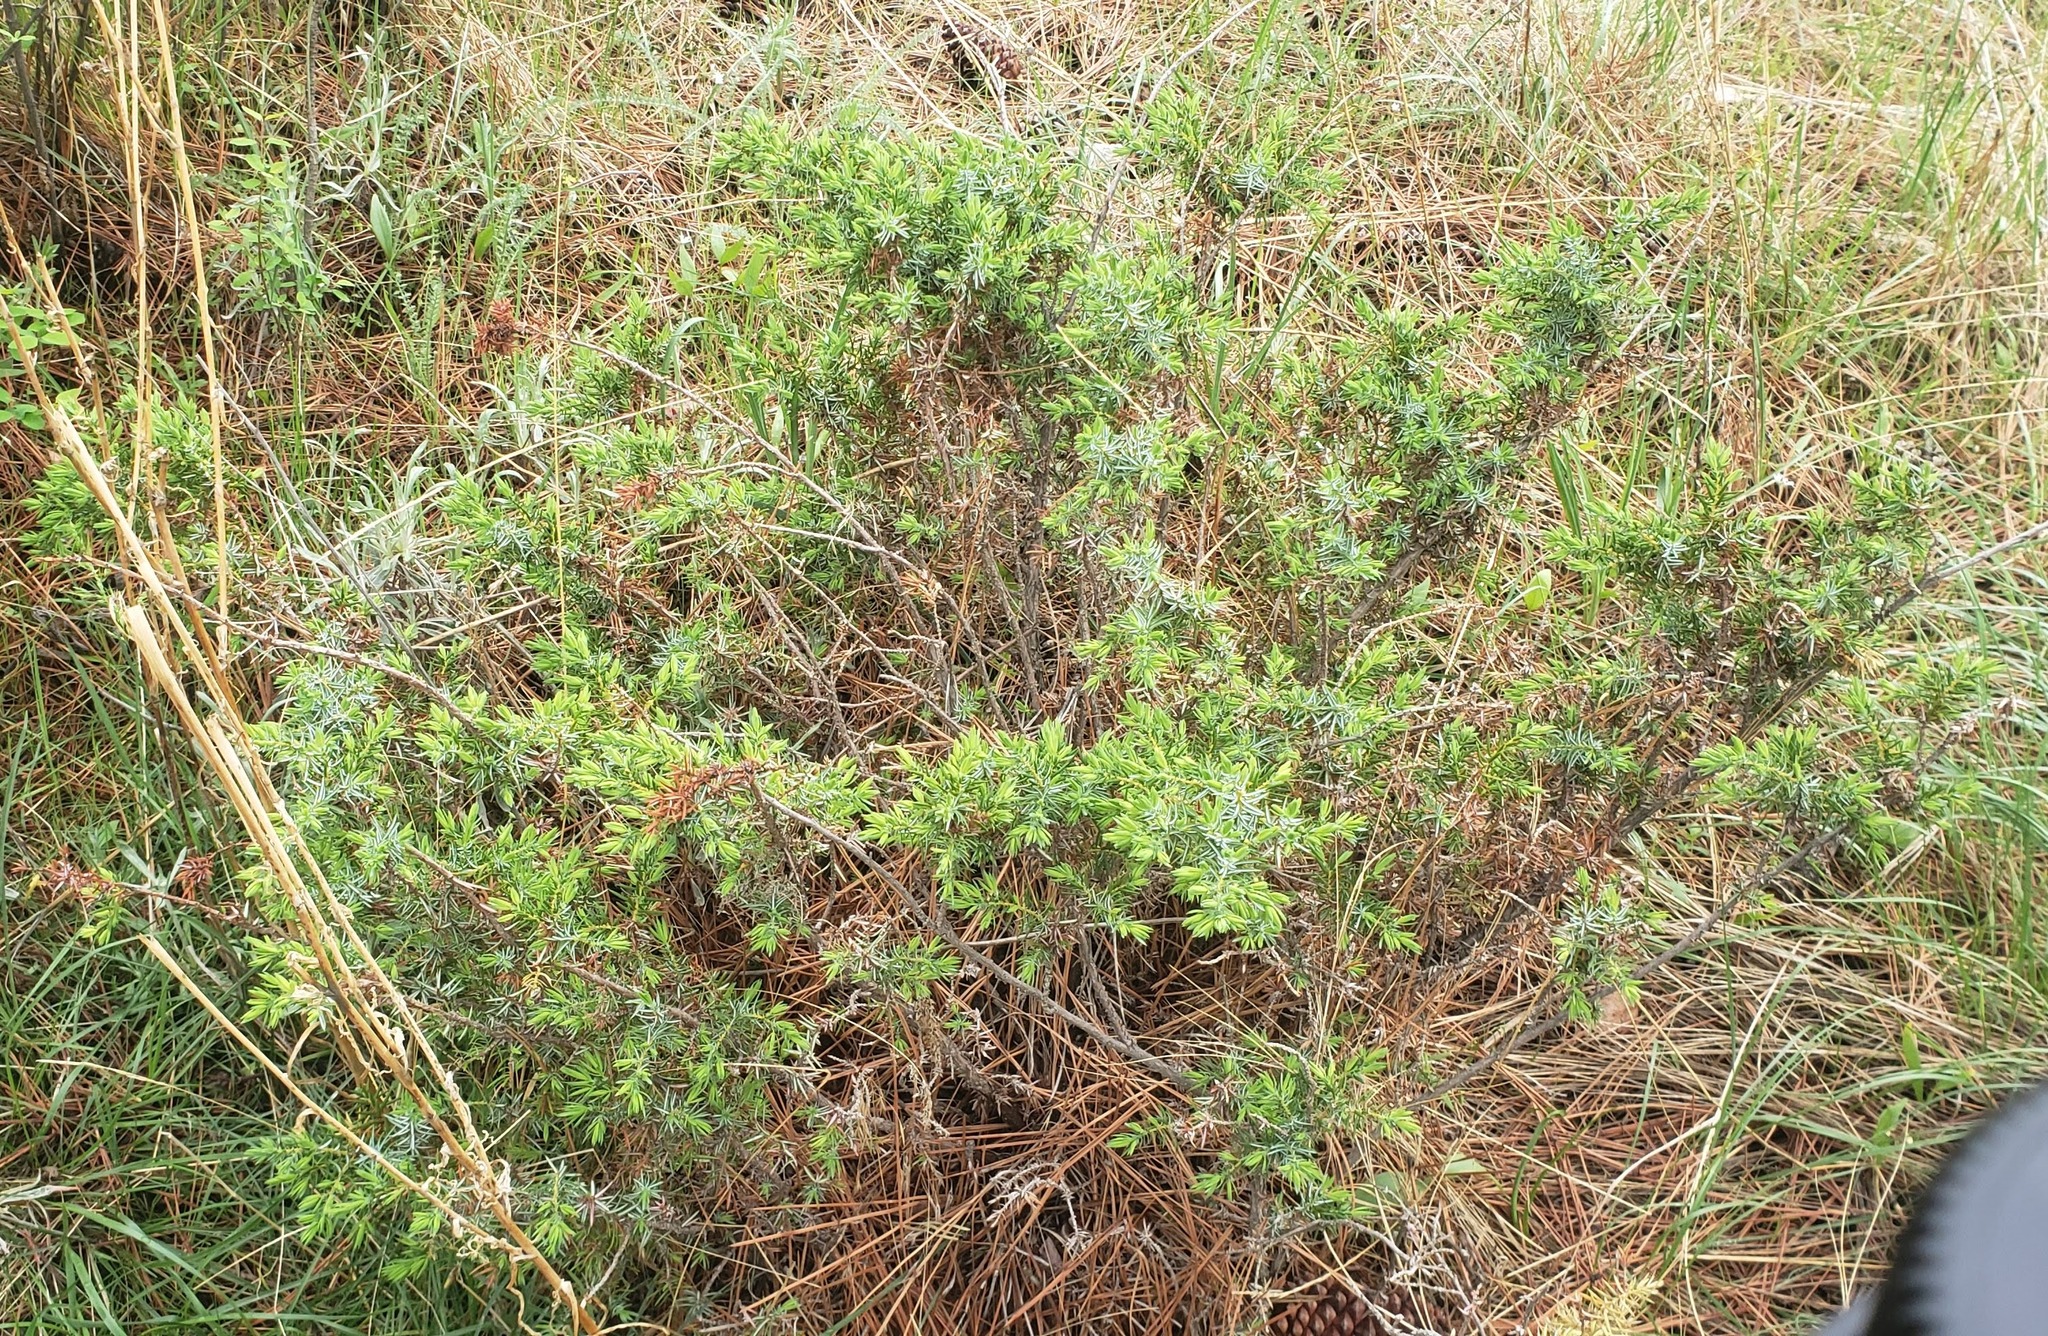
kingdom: Plantae
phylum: Tracheophyta
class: Pinopsida
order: Pinales
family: Cupressaceae
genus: Juniperus
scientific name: Juniperus communis
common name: Common juniper
